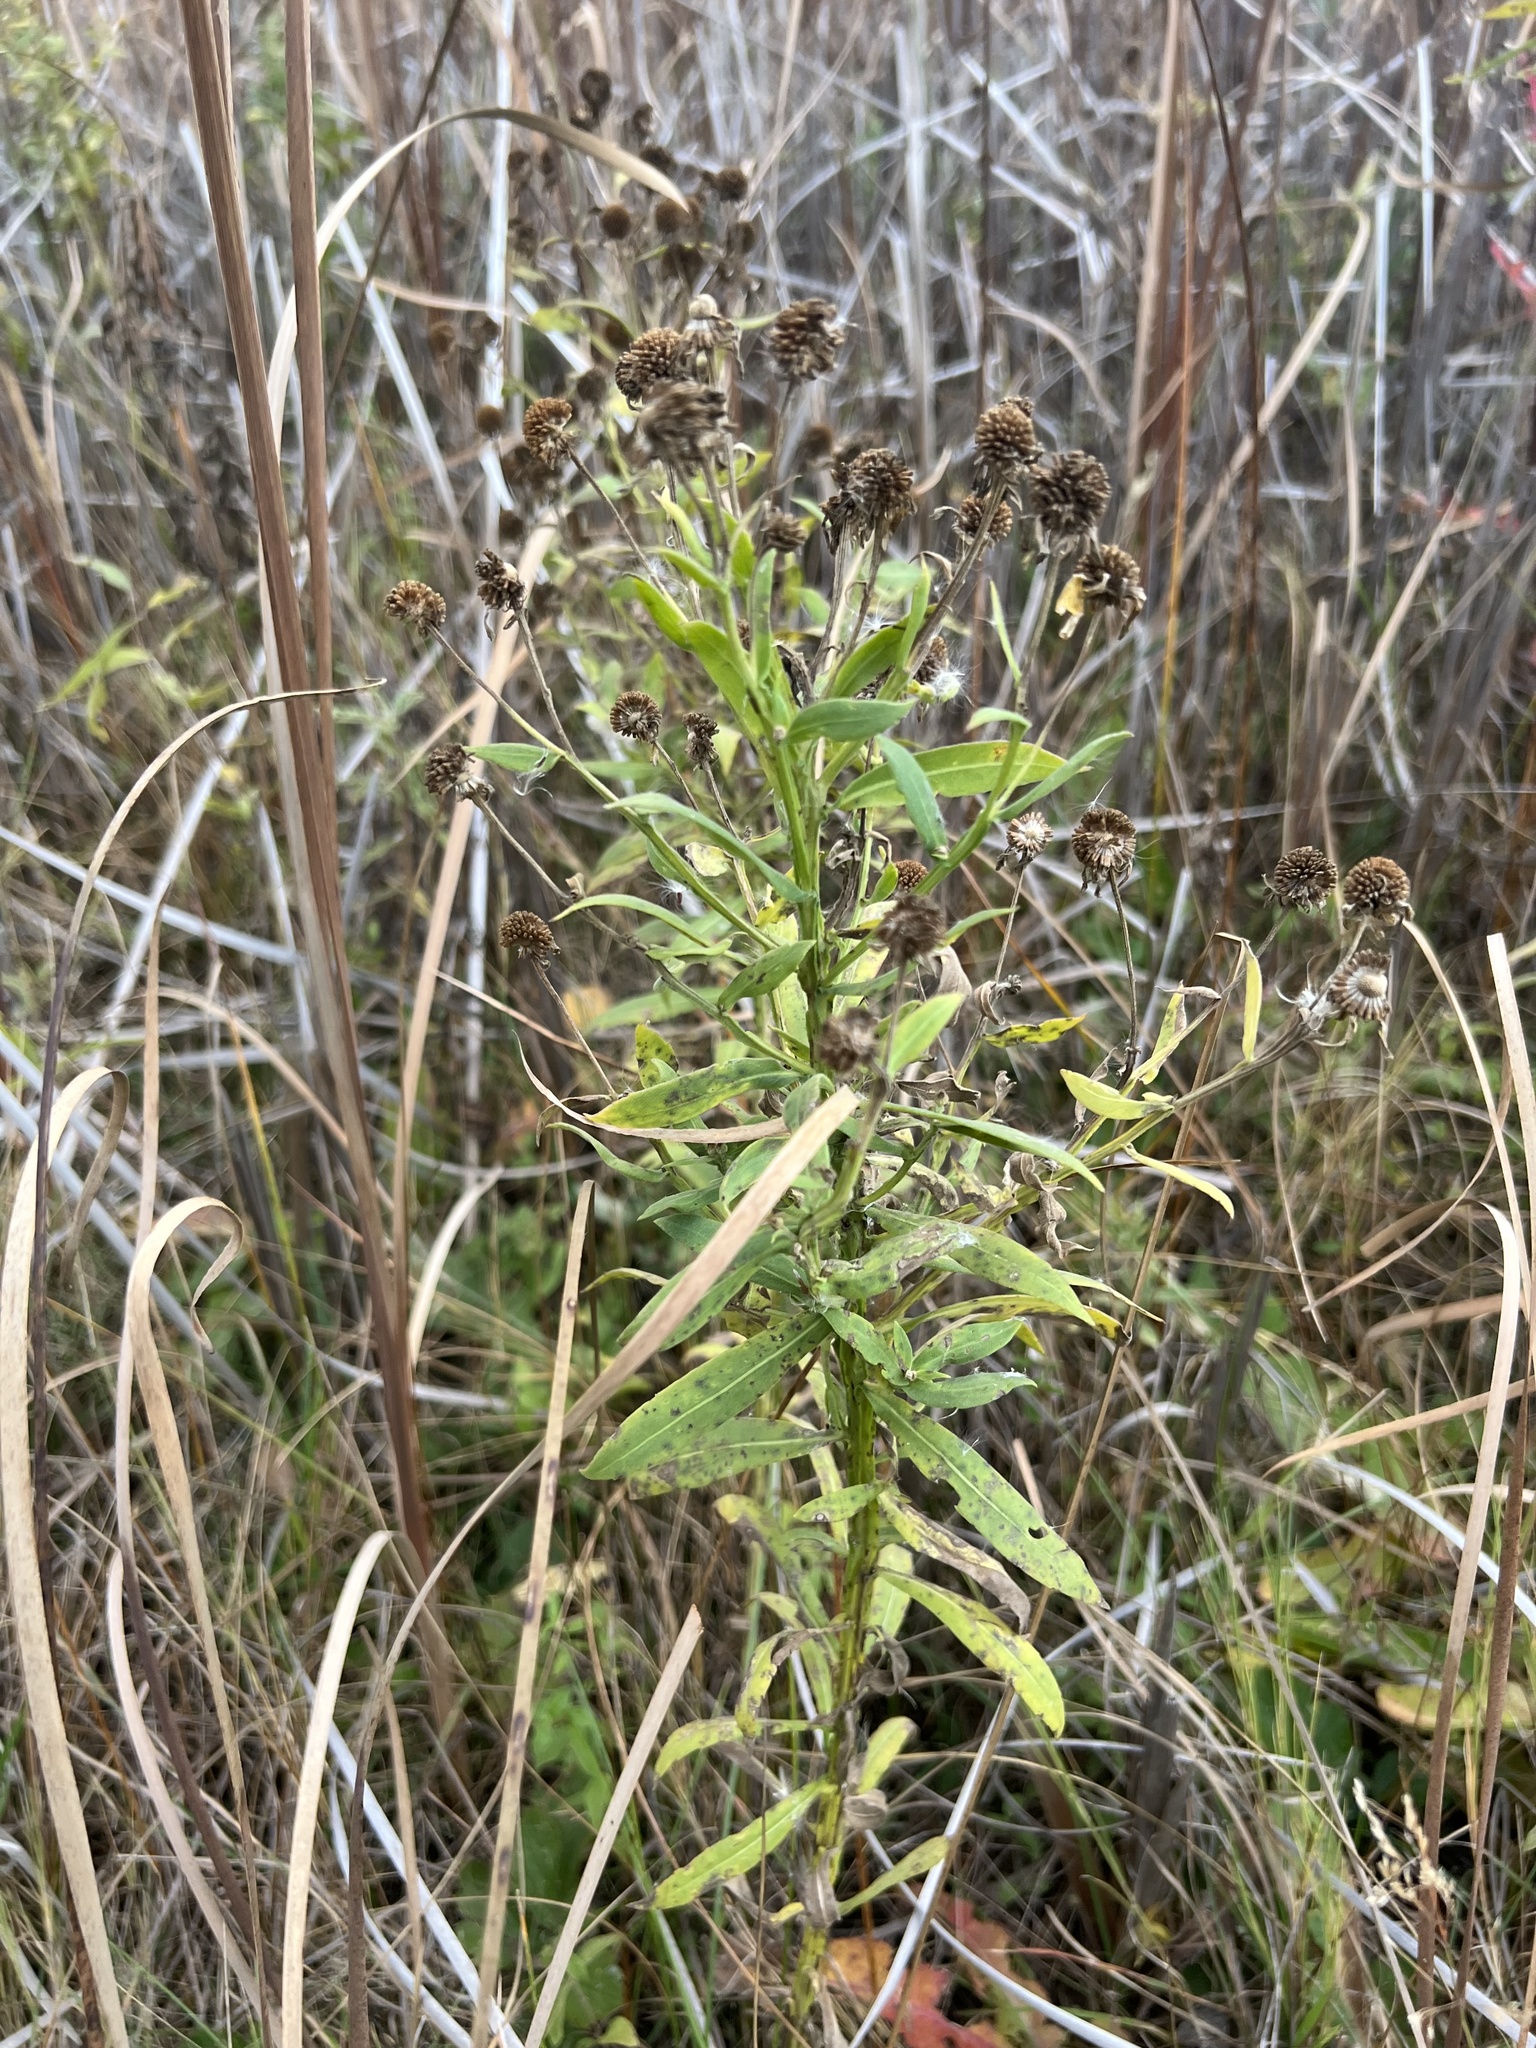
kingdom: Plantae
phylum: Tracheophyta
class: Magnoliopsida
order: Asterales
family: Asteraceae
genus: Helenium
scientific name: Helenium autumnale
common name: Sneezeweed
